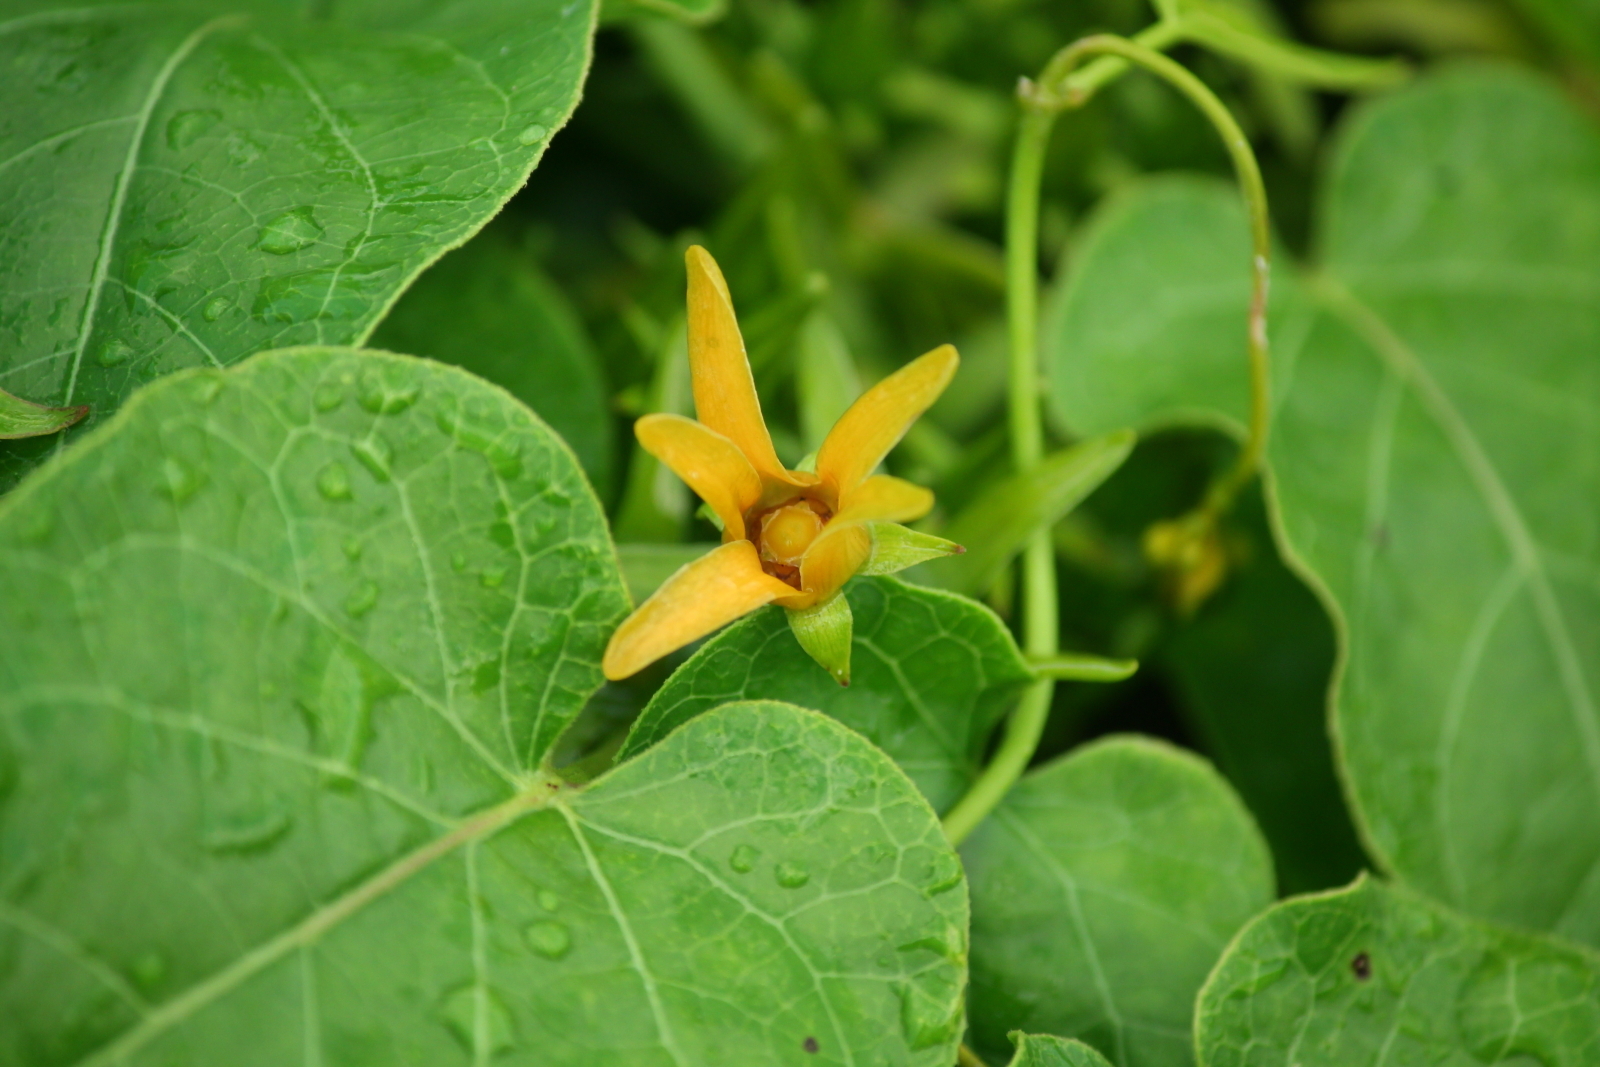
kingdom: Plantae
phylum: Tracheophyta
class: Magnoliopsida
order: Gentianales
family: Apocynaceae
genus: Gonolobus
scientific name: Gonolobus suberosus
